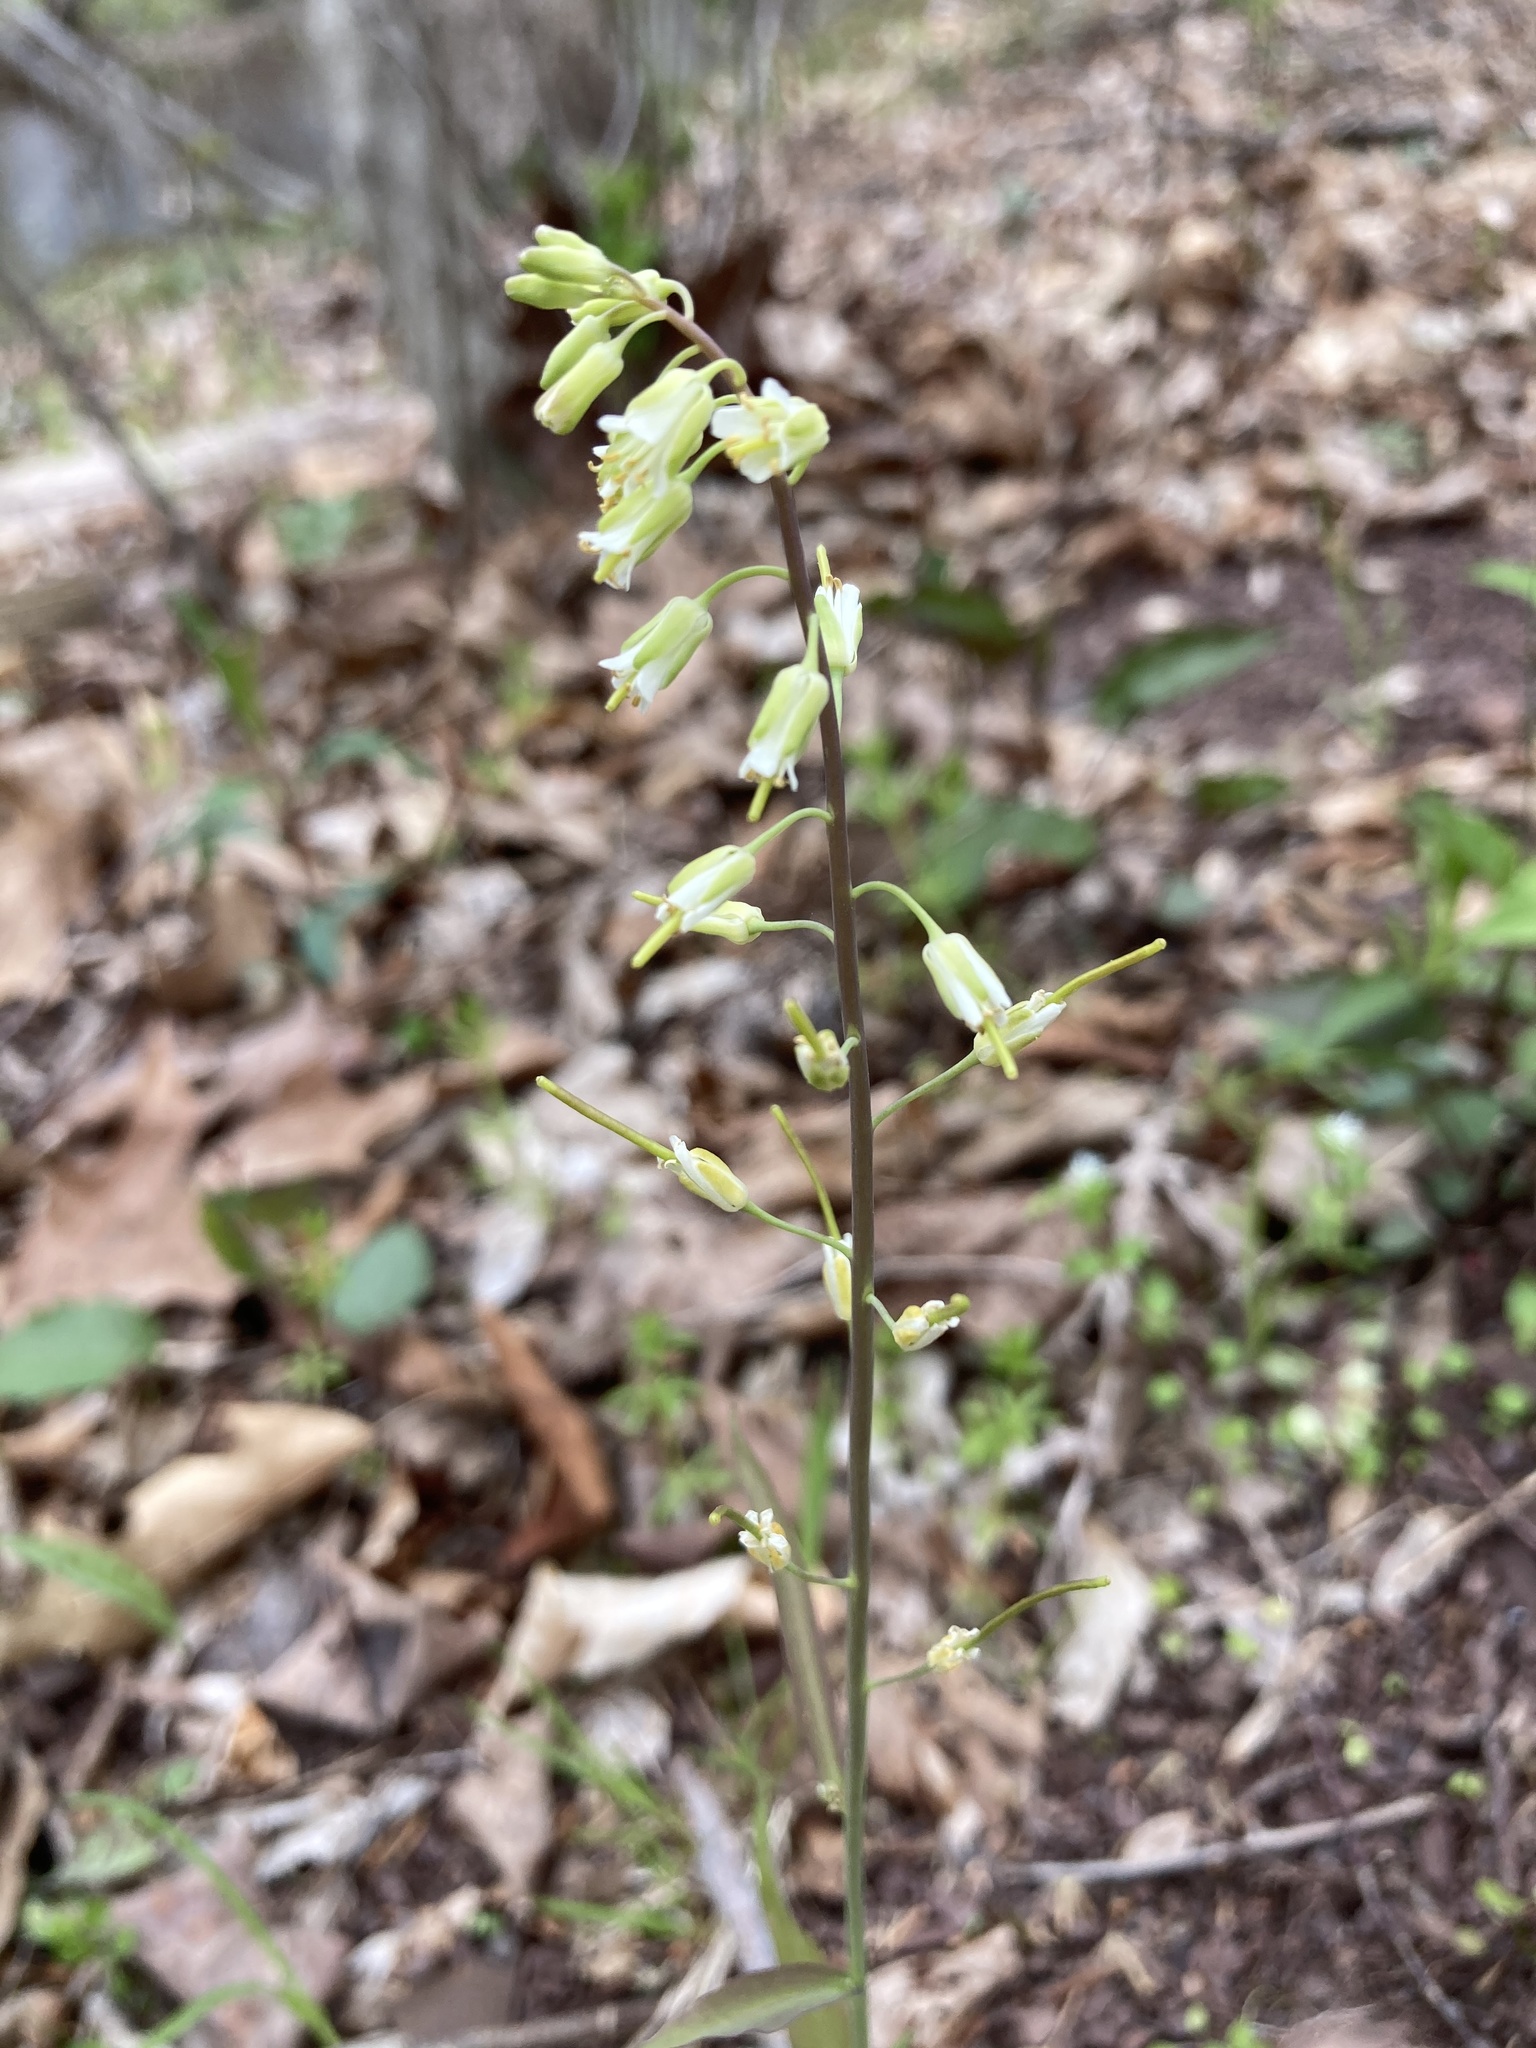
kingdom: Plantae
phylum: Tracheophyta
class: Magnoliopsida
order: Brassicales
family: Brassicaceae
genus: Borodinia
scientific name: Borodinia laevigata
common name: Smooth rockcress
